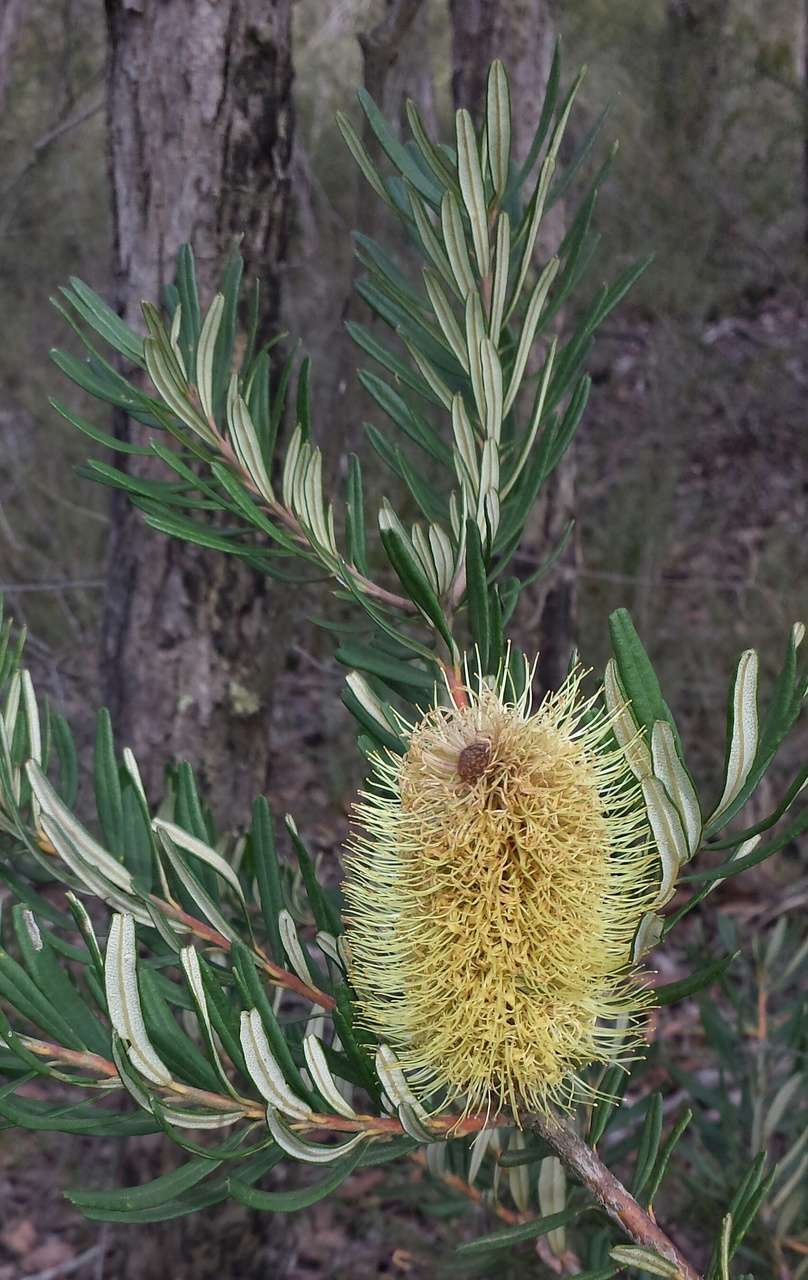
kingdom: Plantae
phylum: Tracheophyta
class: Magnoliopsida
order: Proteales
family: Proteaceae
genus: Banksia
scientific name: Banksia marginata
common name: Silver banksia
